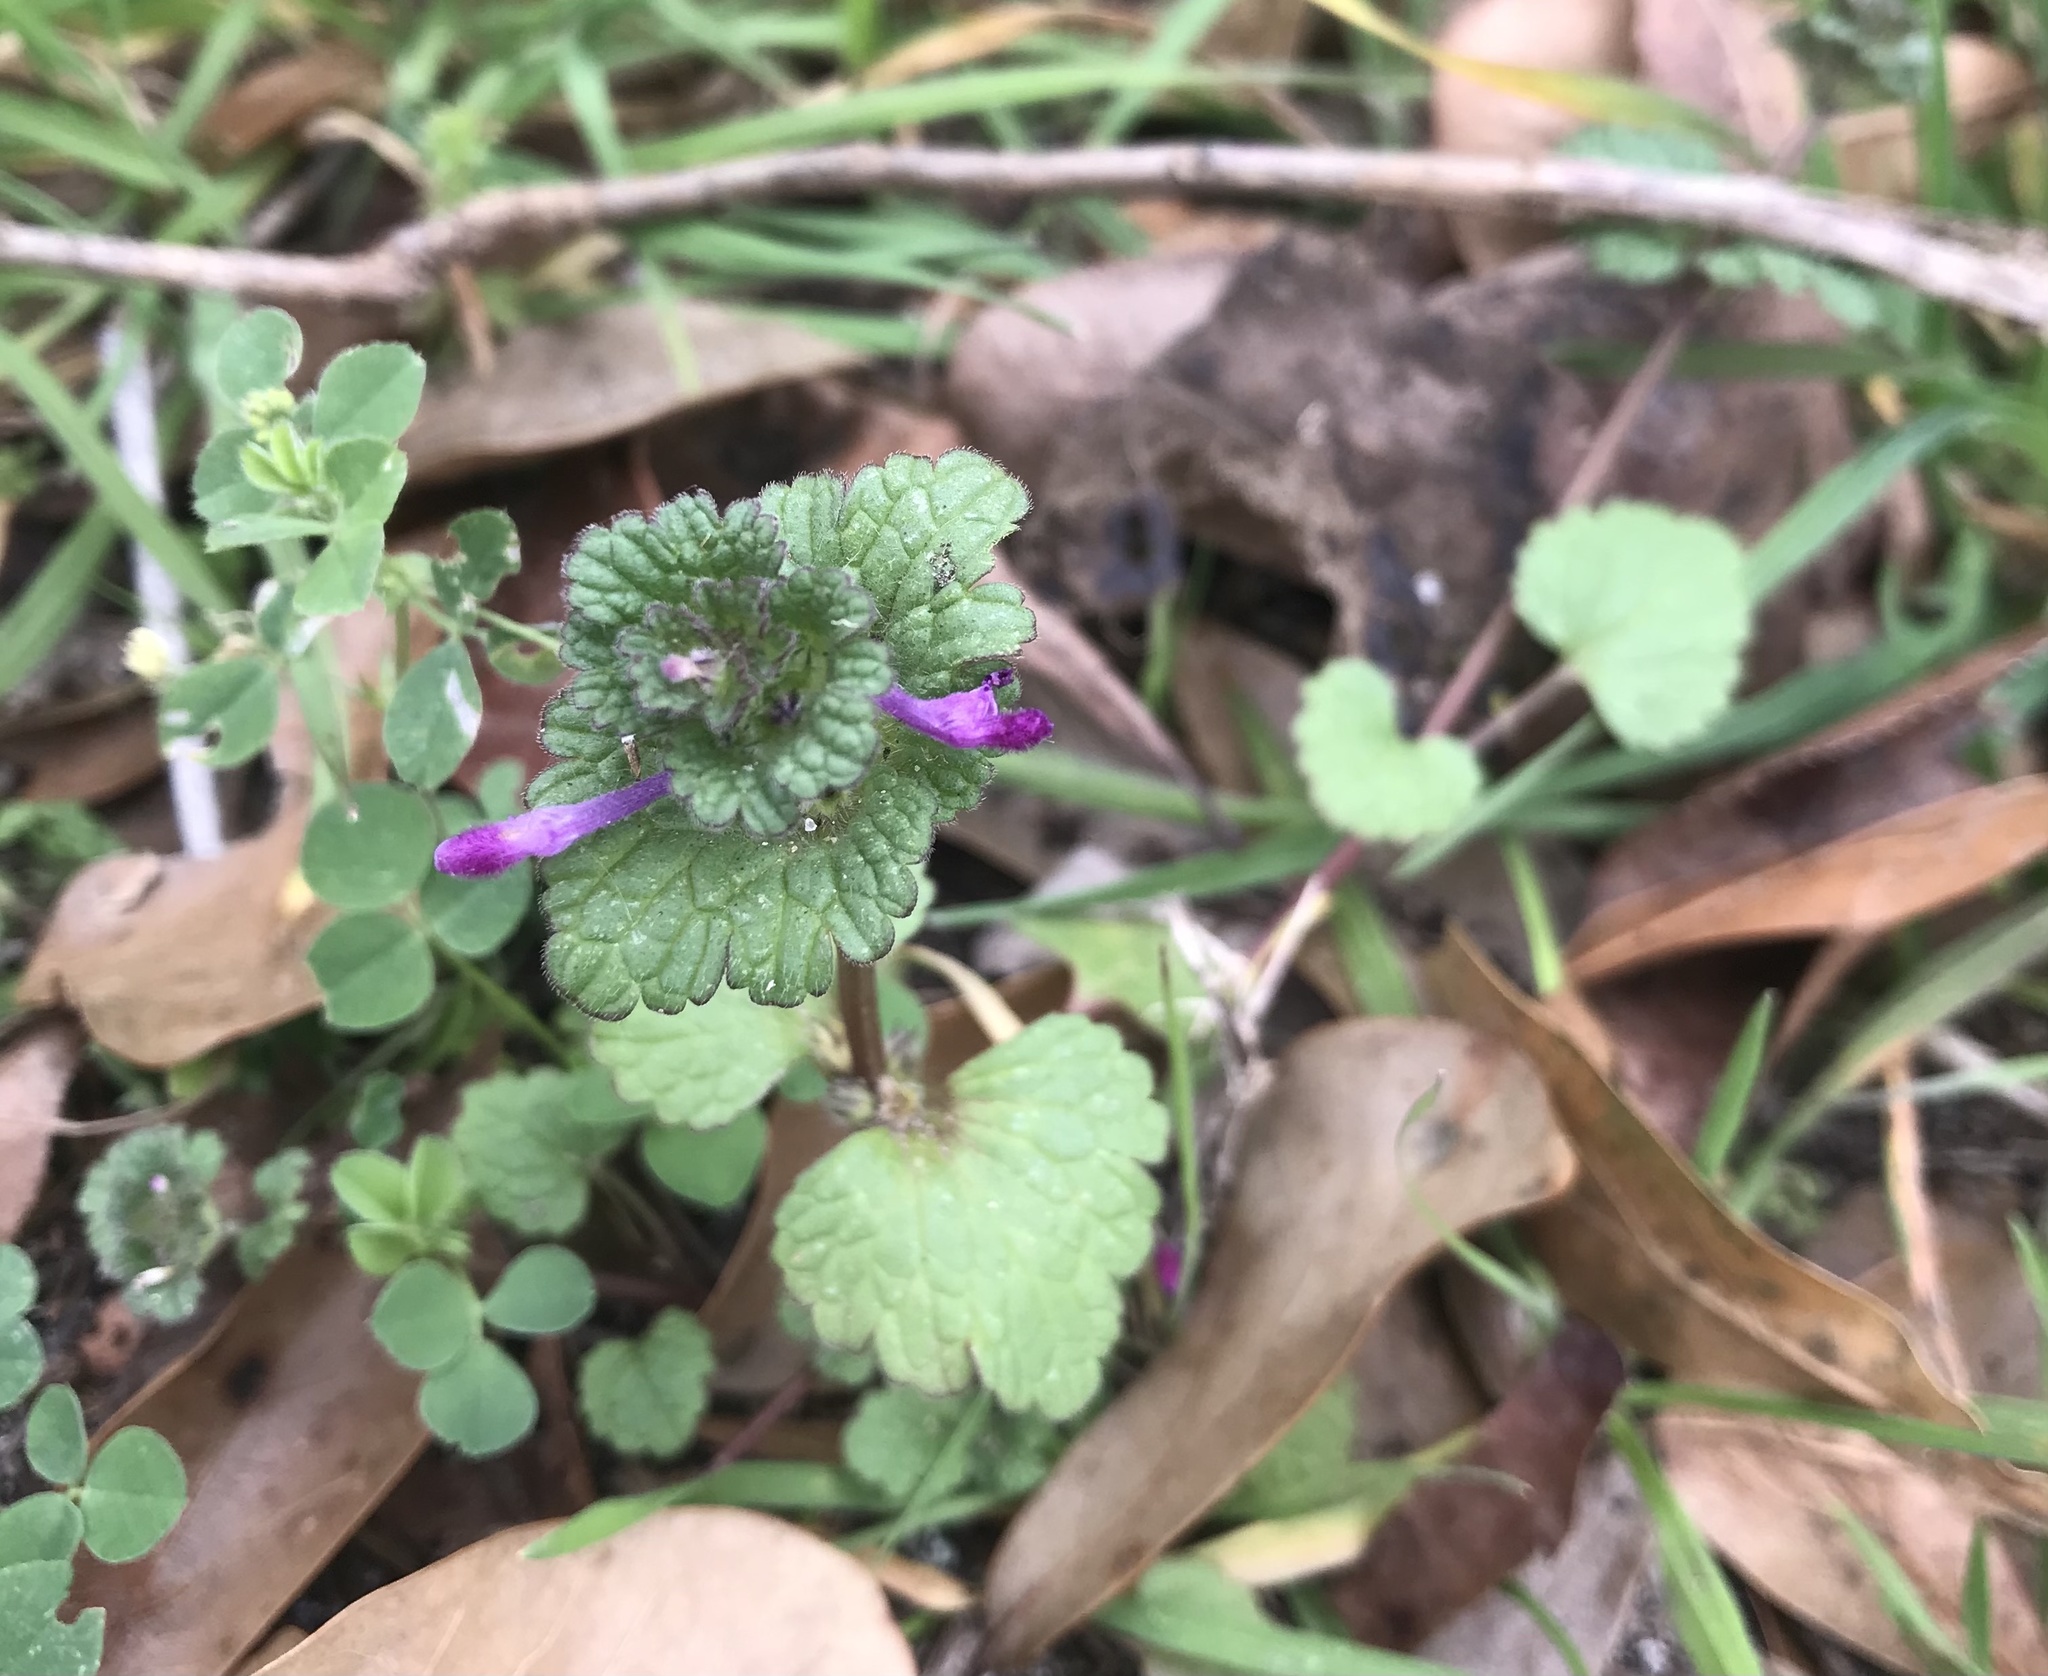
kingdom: Plantae
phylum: Tracheophyta
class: Magnoliopsida
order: Lamiales
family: Lamiaceae
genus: Lamium
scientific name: Lamium amplexicaule
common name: Henbit dead-nettle
